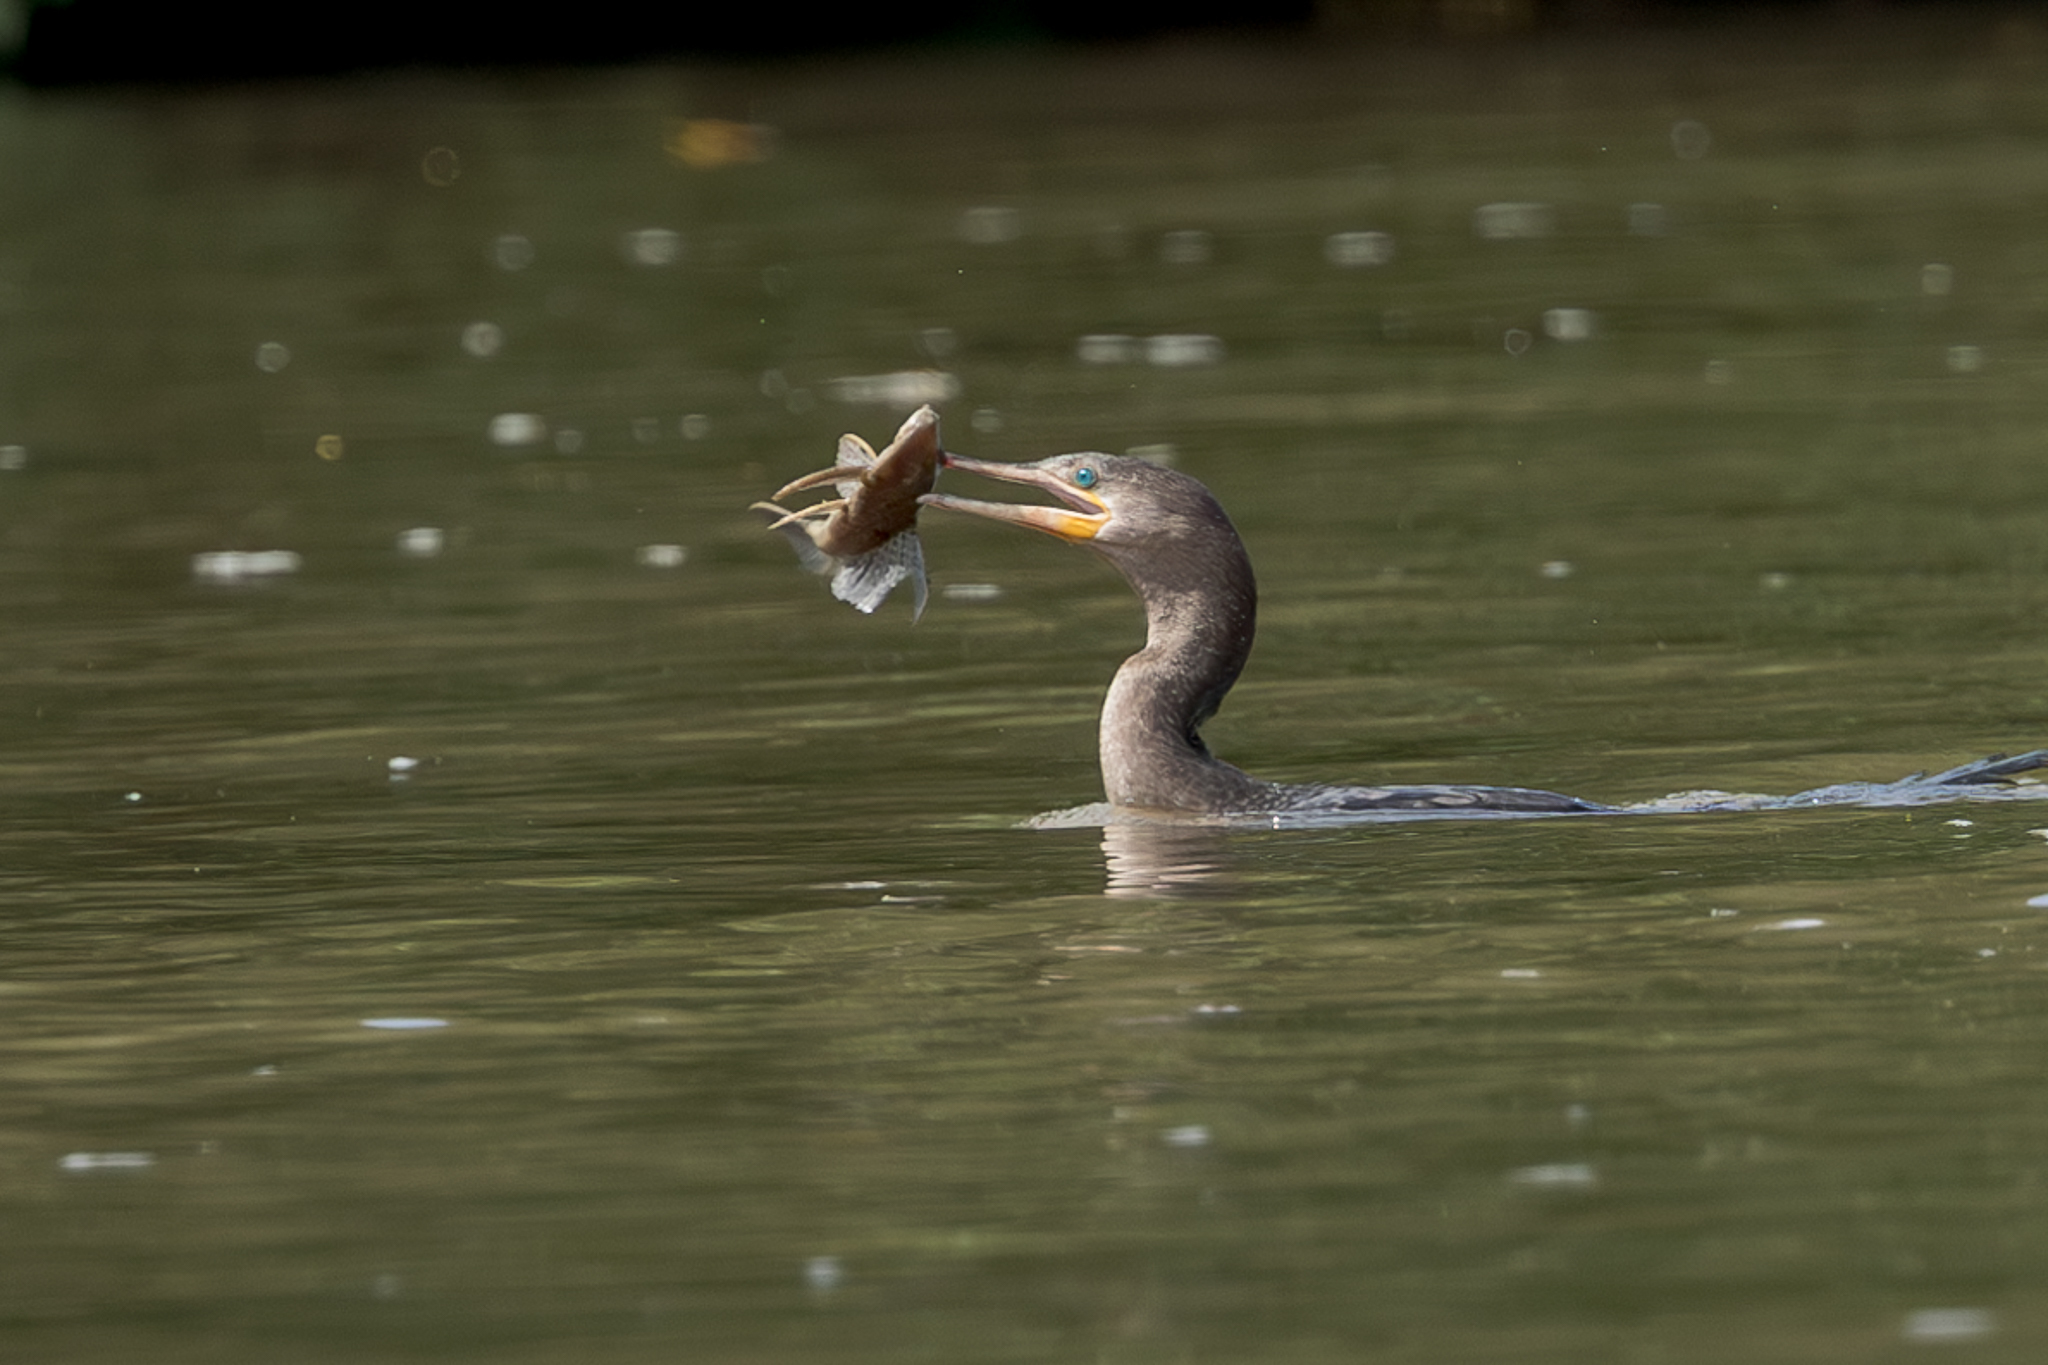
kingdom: Animalia
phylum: Chordata
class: Aves
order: Suliformes
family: Phalacrocoracidae
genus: Phalacrocorax
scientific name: Phalacrocorax brasilianus
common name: Neotropic cormorant
